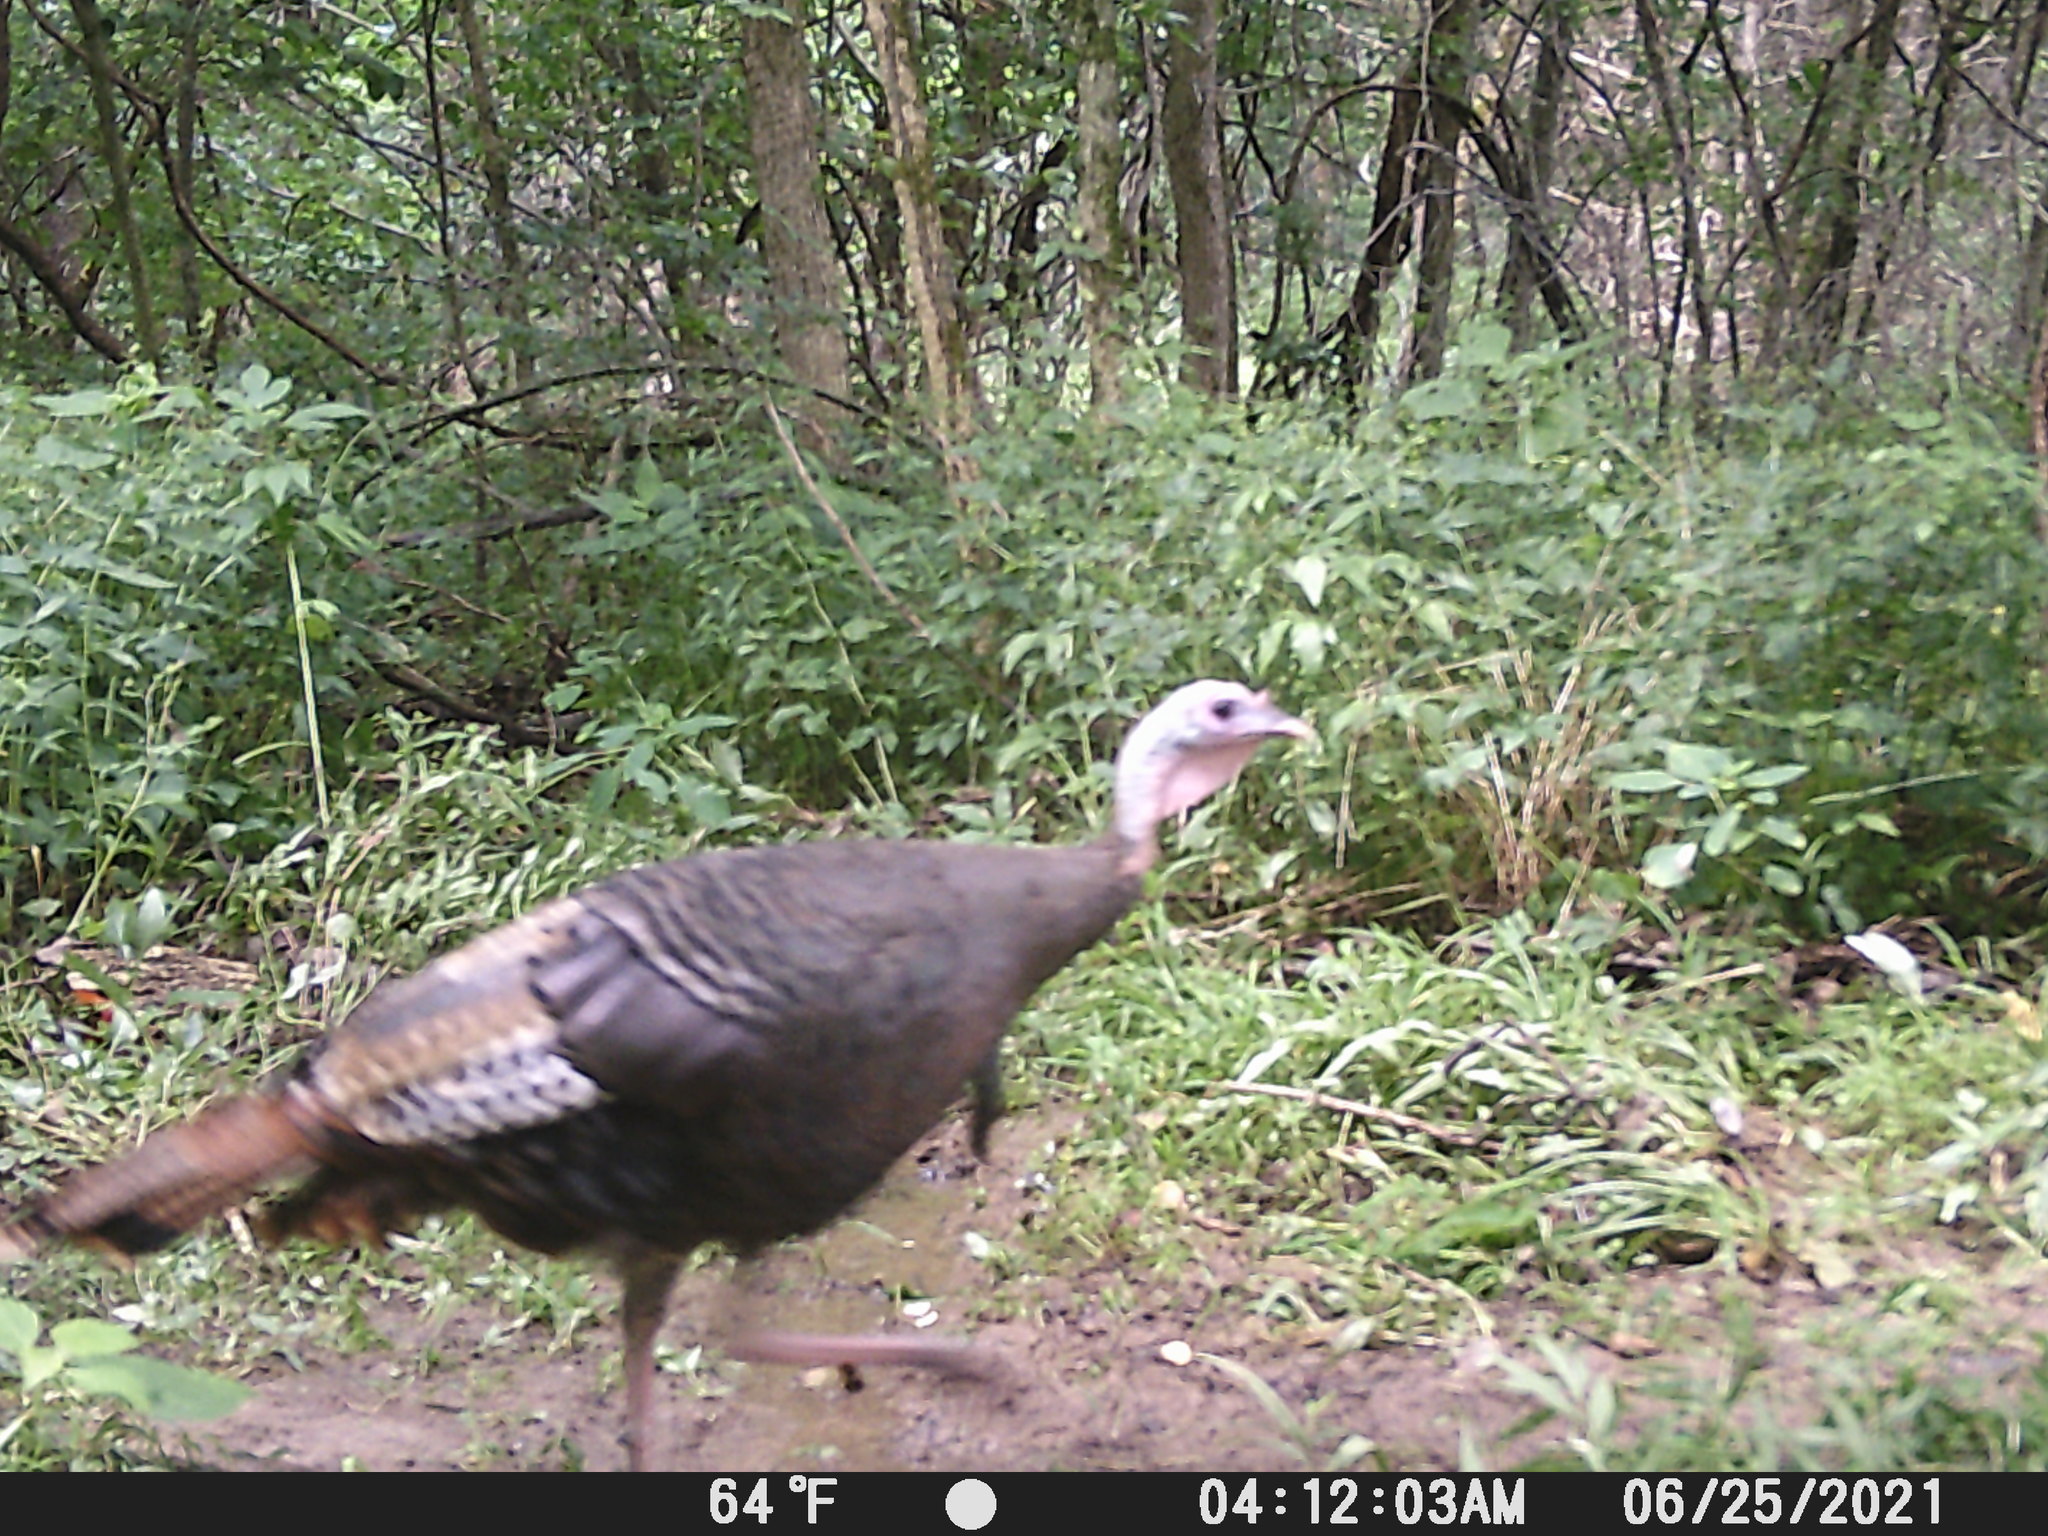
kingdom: Animalia
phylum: Chordata
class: Aves
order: Galliformes
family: Phasianidae
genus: Meleagris
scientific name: Meleagris gallopavo
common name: Wild turkey
